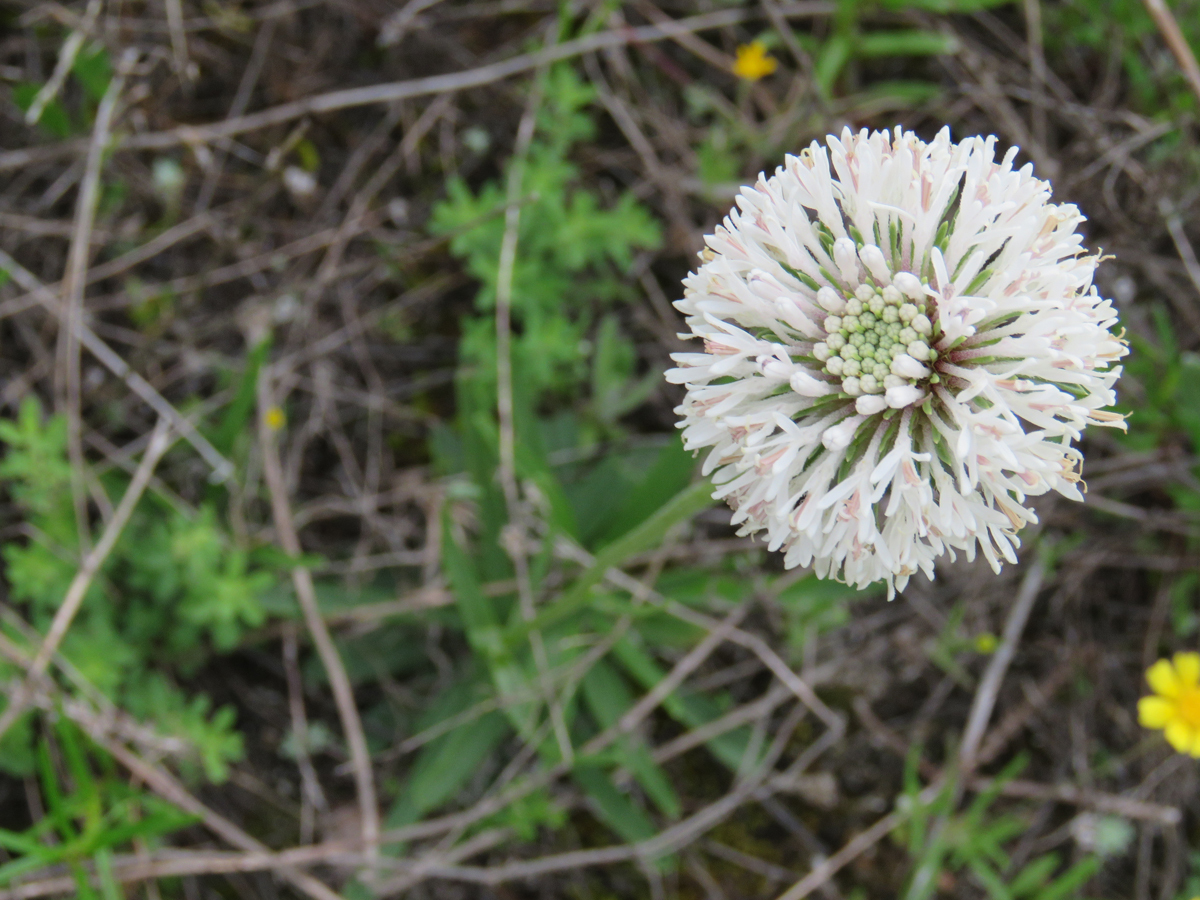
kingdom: Plantae
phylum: Tracheophyta
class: Magnoliopsida
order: Asterales
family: Asteraceae
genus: Marshallia
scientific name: Marshallia caespitosa
